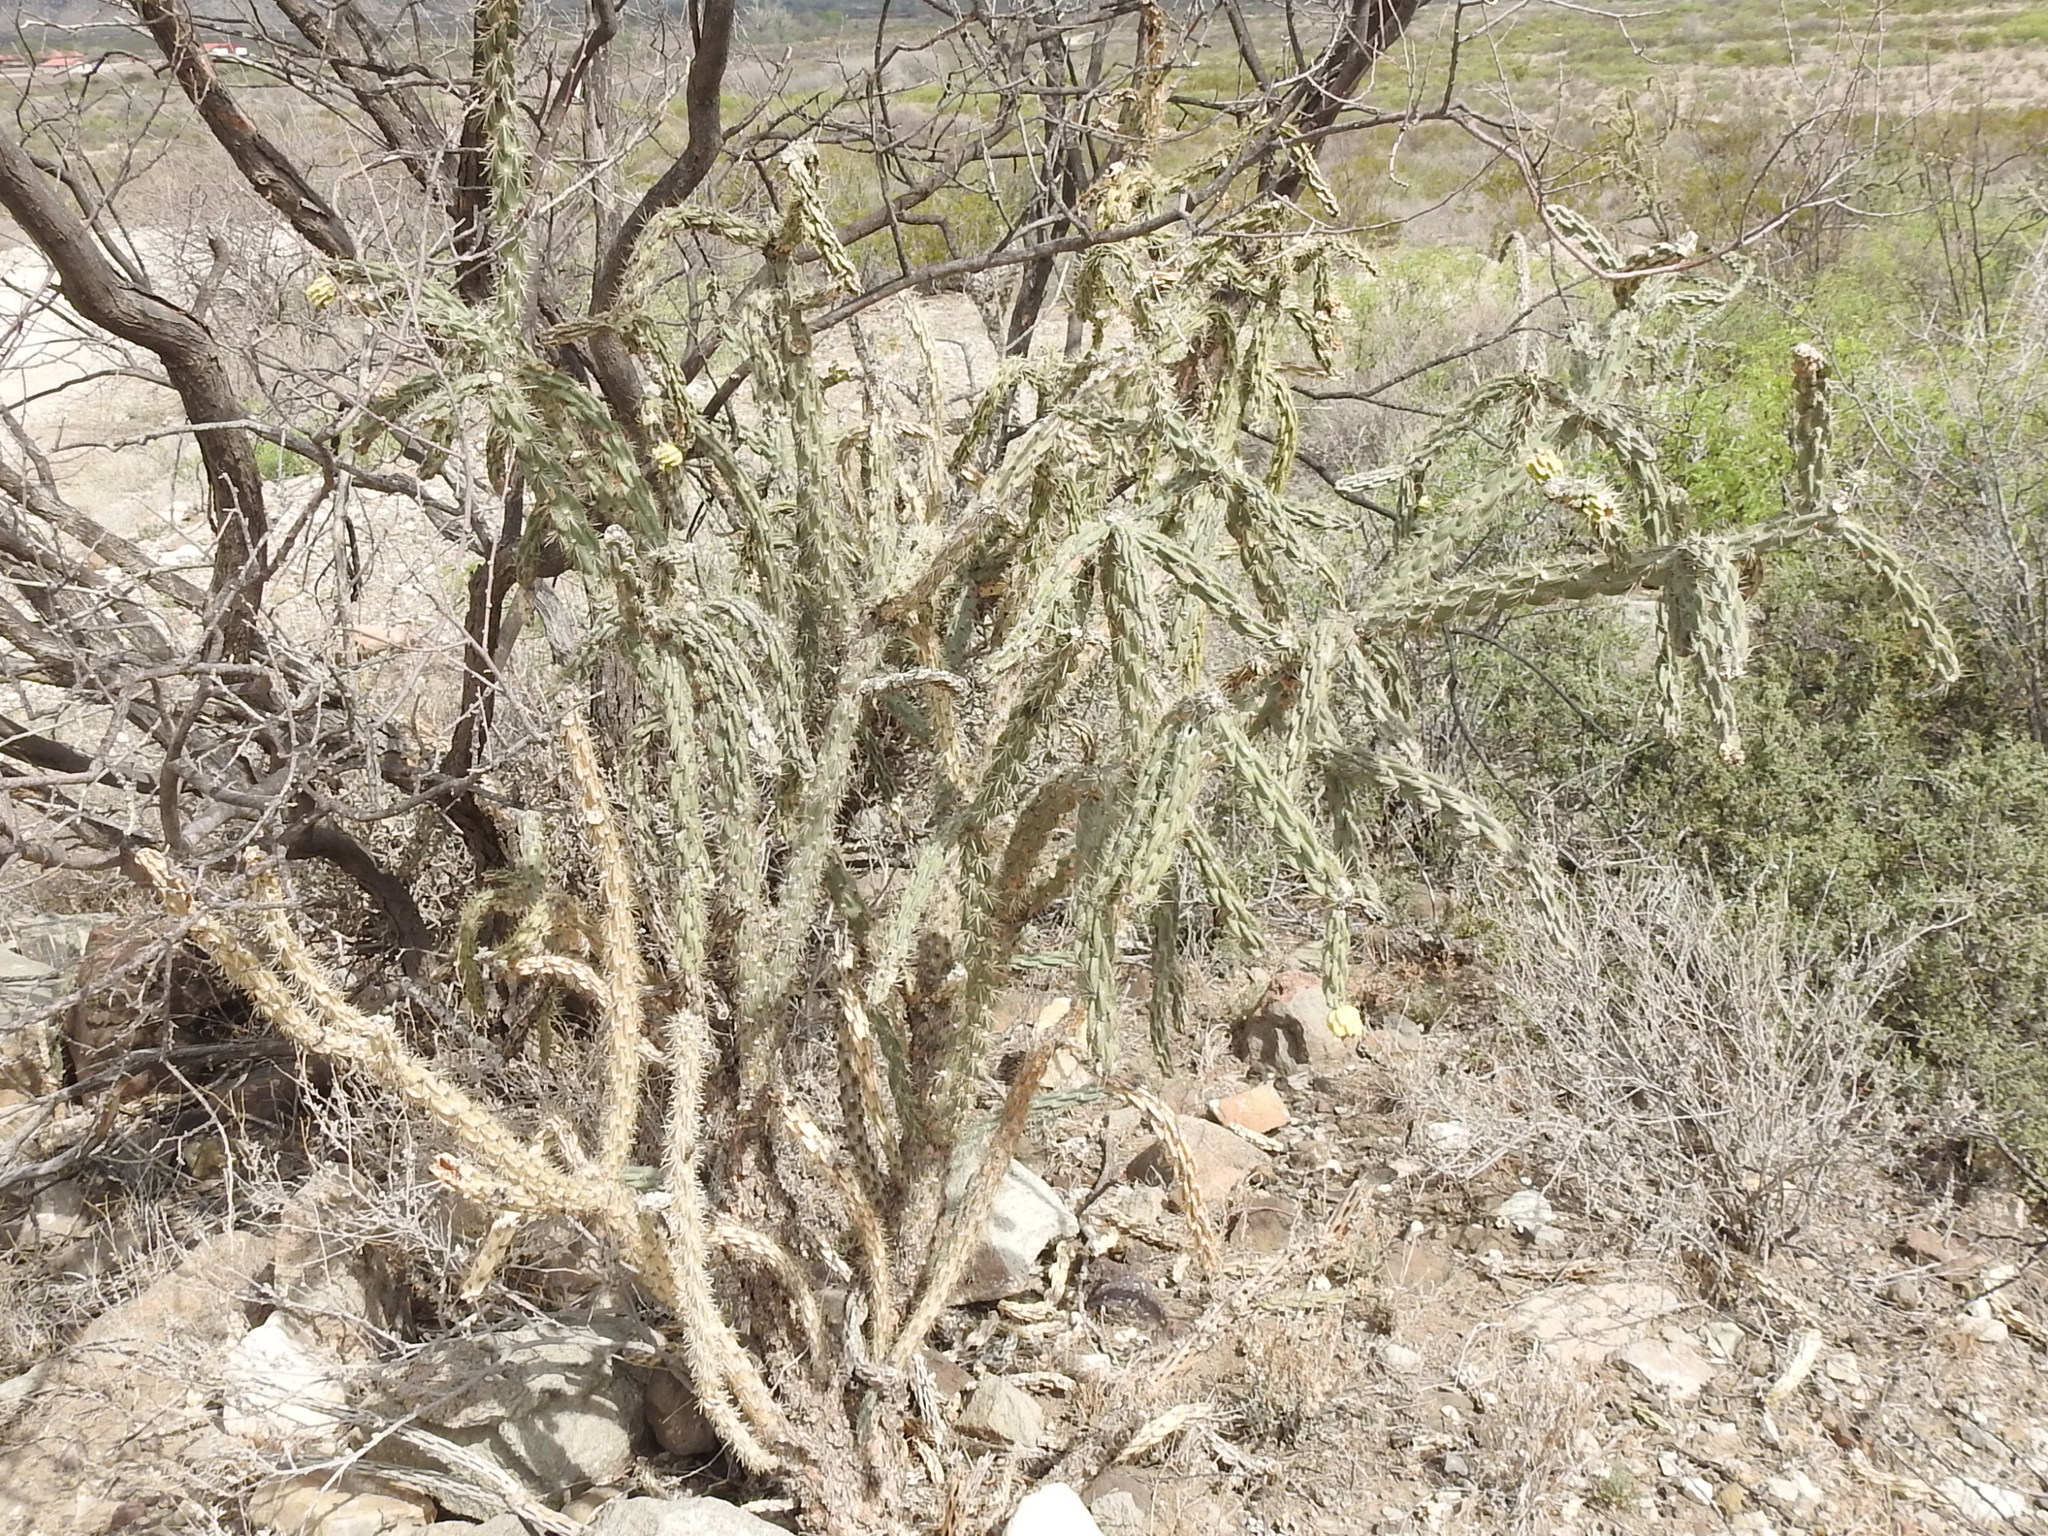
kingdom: Plantae
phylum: Tracheophyta
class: Magnoliopsida
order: Caryophyllales
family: Cactaceae
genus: Cylindropuntia
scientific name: Cylindropuntia imbricata
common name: Candelabrum cactus
